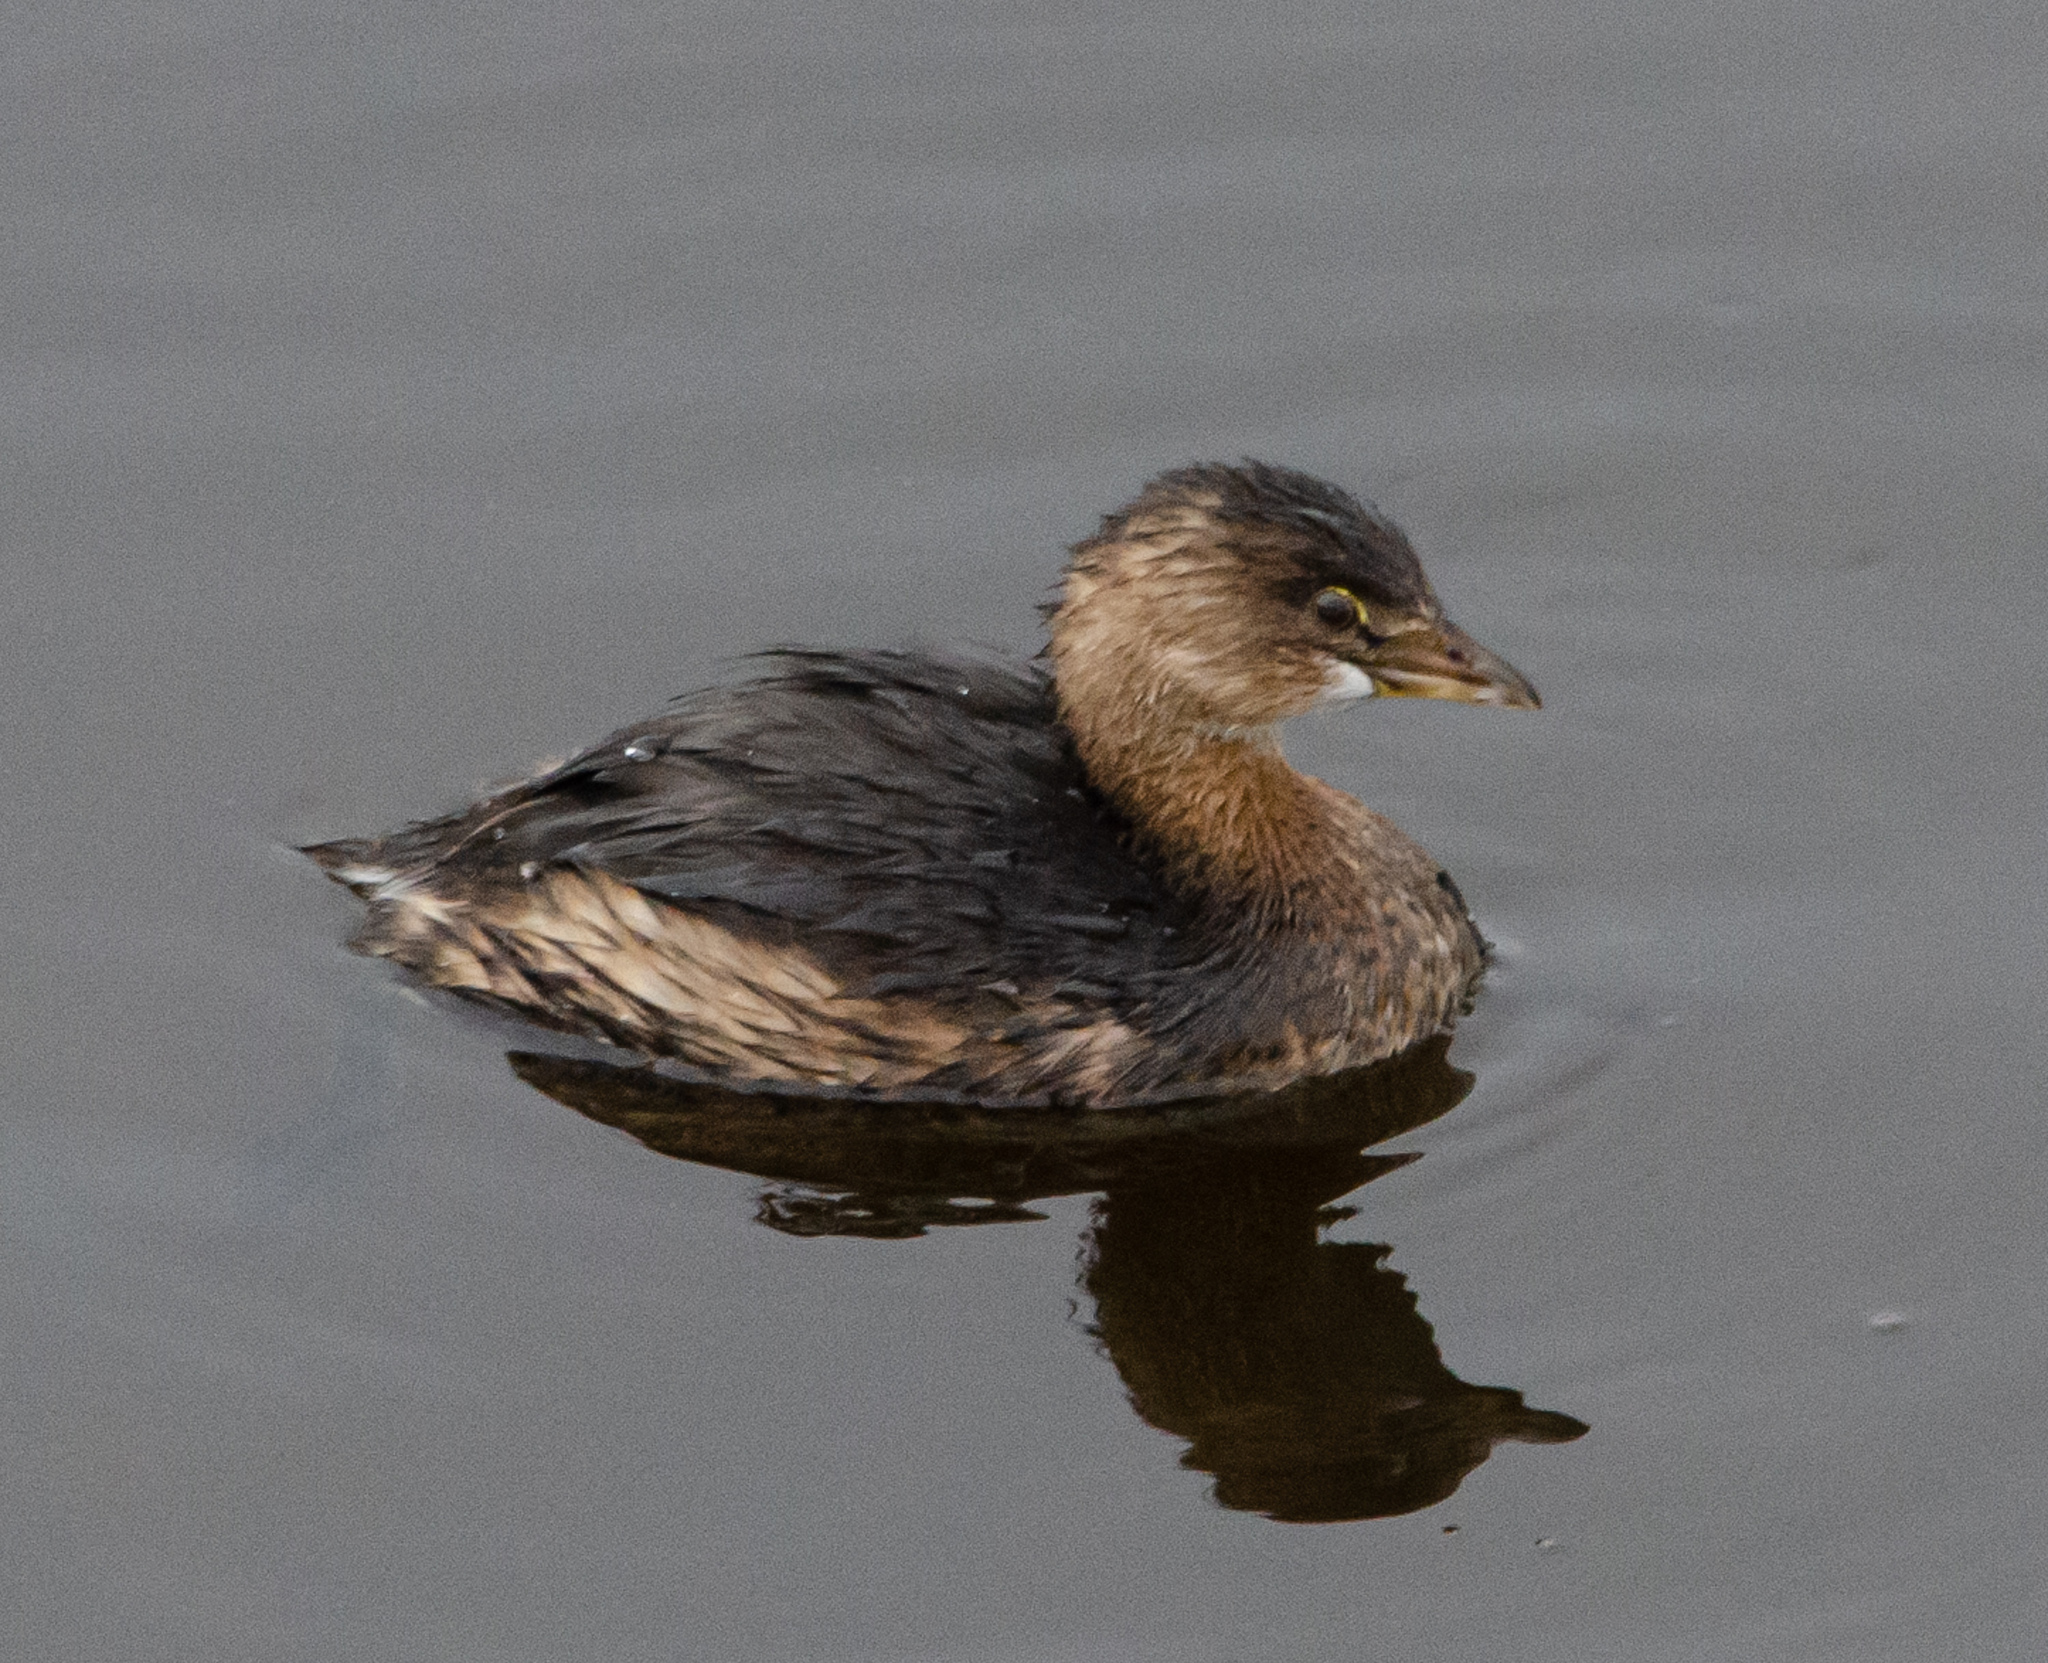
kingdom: Animalia
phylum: Chordata
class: Aves
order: Podicipediformes
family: Podicipedidae
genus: Podilymbus
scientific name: Podilymbus podiceps
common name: Pied-billed grebe
